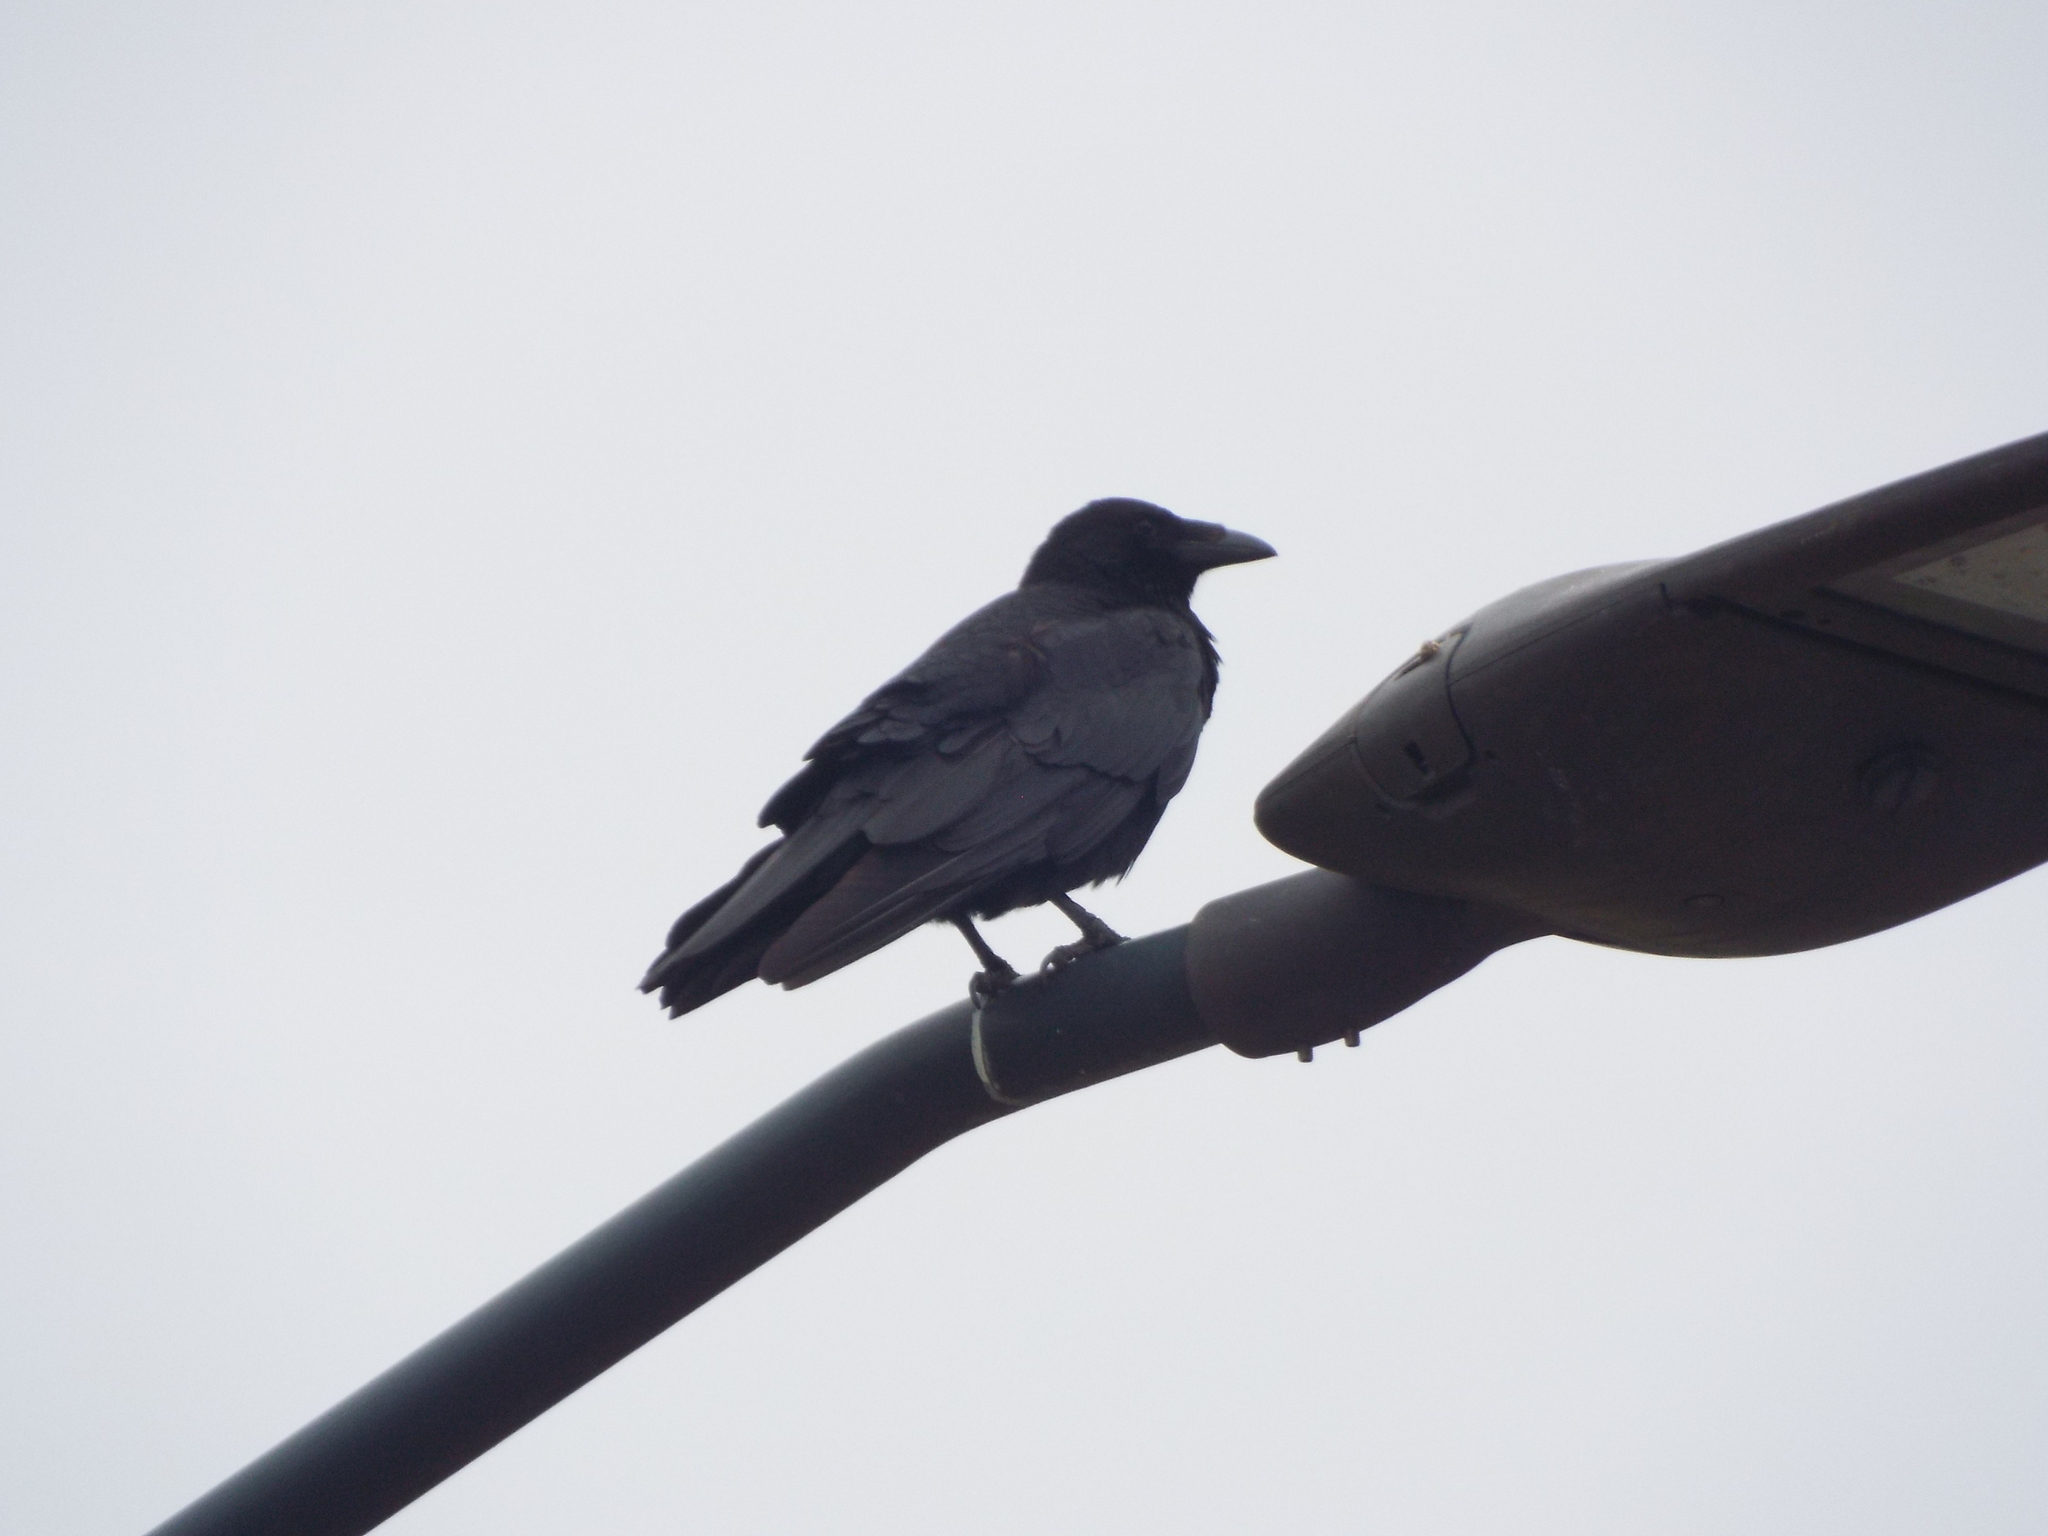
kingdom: Animalia
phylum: Chordata
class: Aves
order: Passeriformes
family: Corvidae
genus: Corvus
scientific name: Corvus corone
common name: Carrion crow
